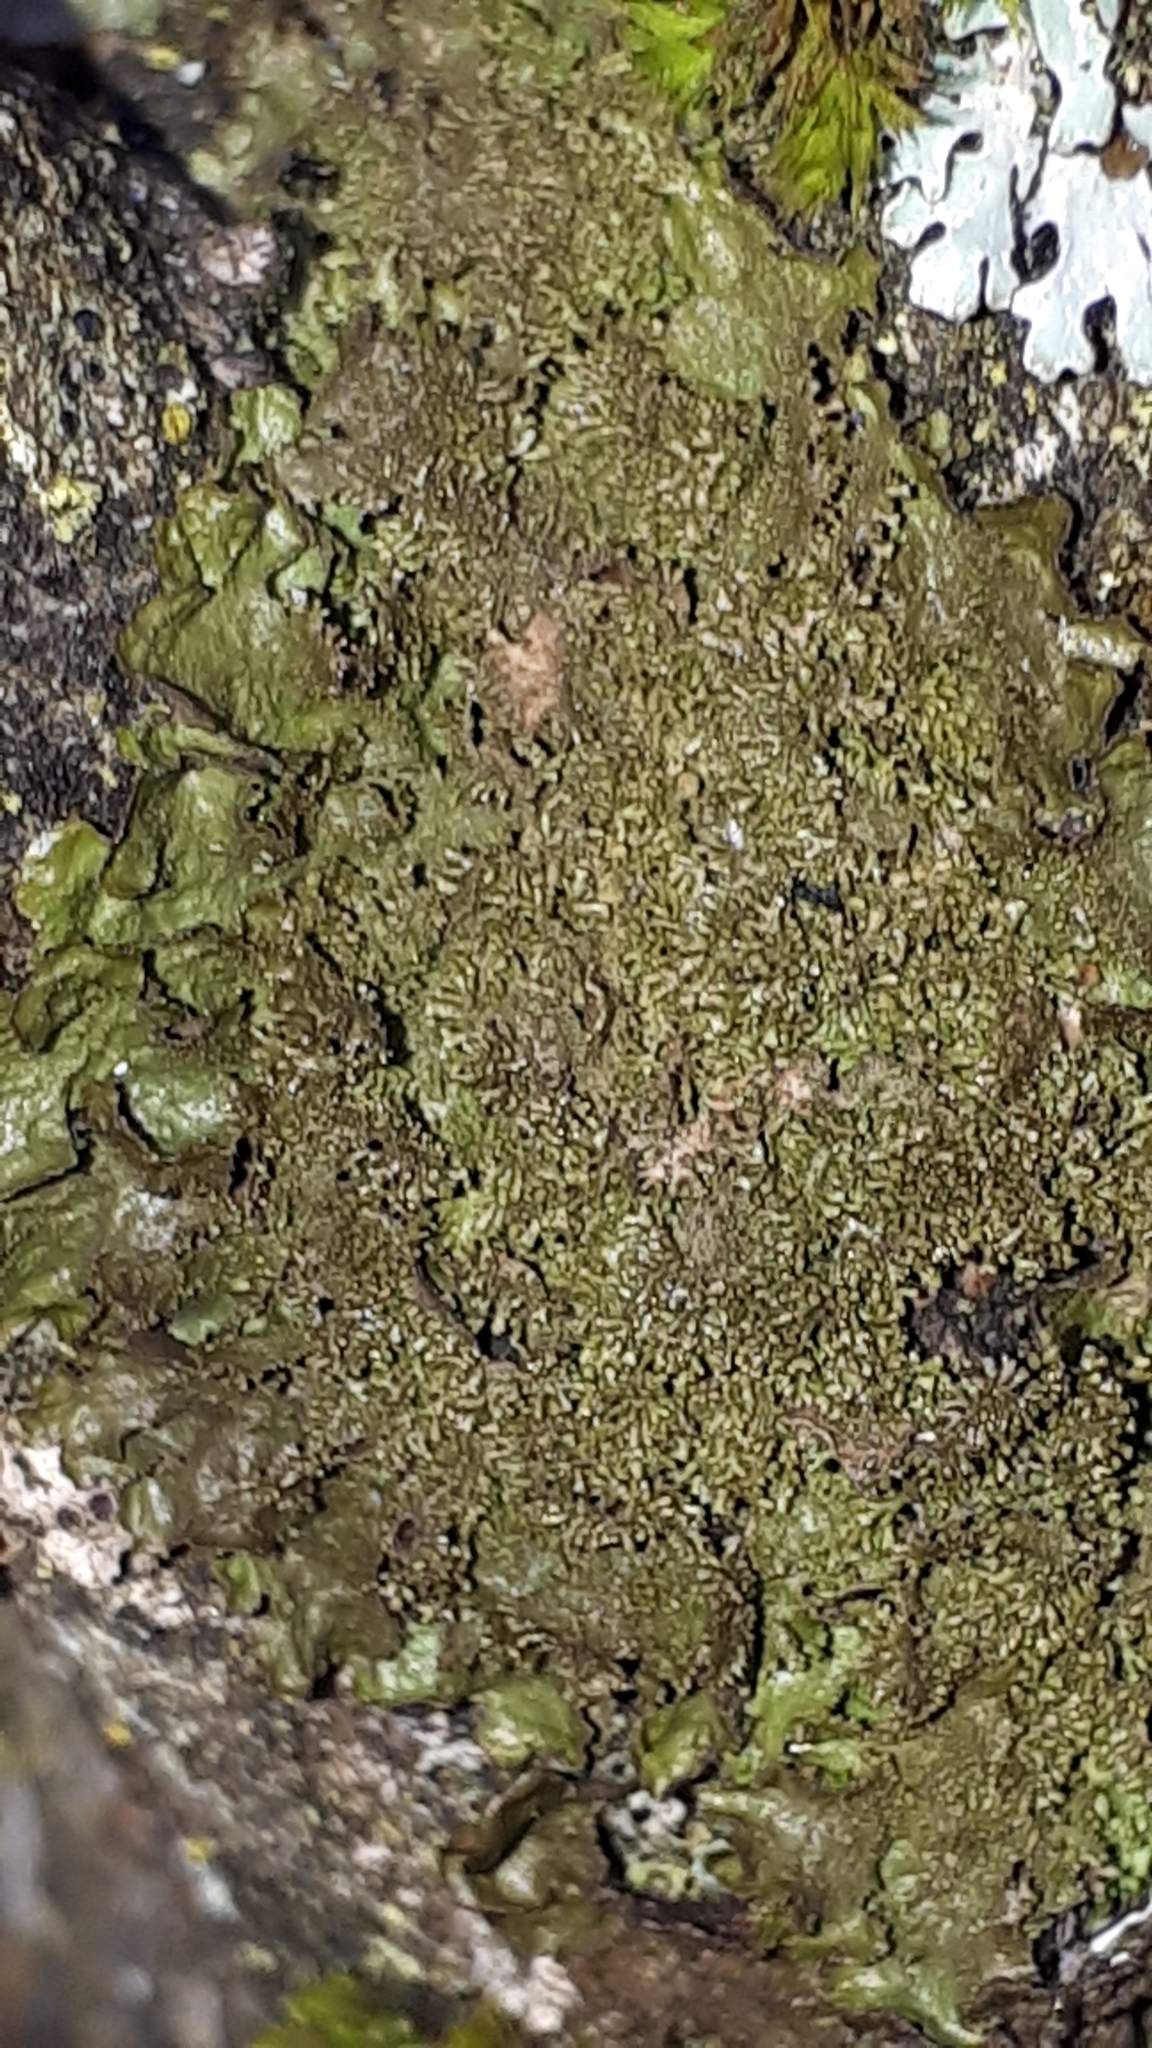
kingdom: Fungi
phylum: Ascomycota
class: Lecanoromycetes
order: Lecanorales
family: Parmeliaceae
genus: Melanohalea
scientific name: Melanohalea exasperatula
